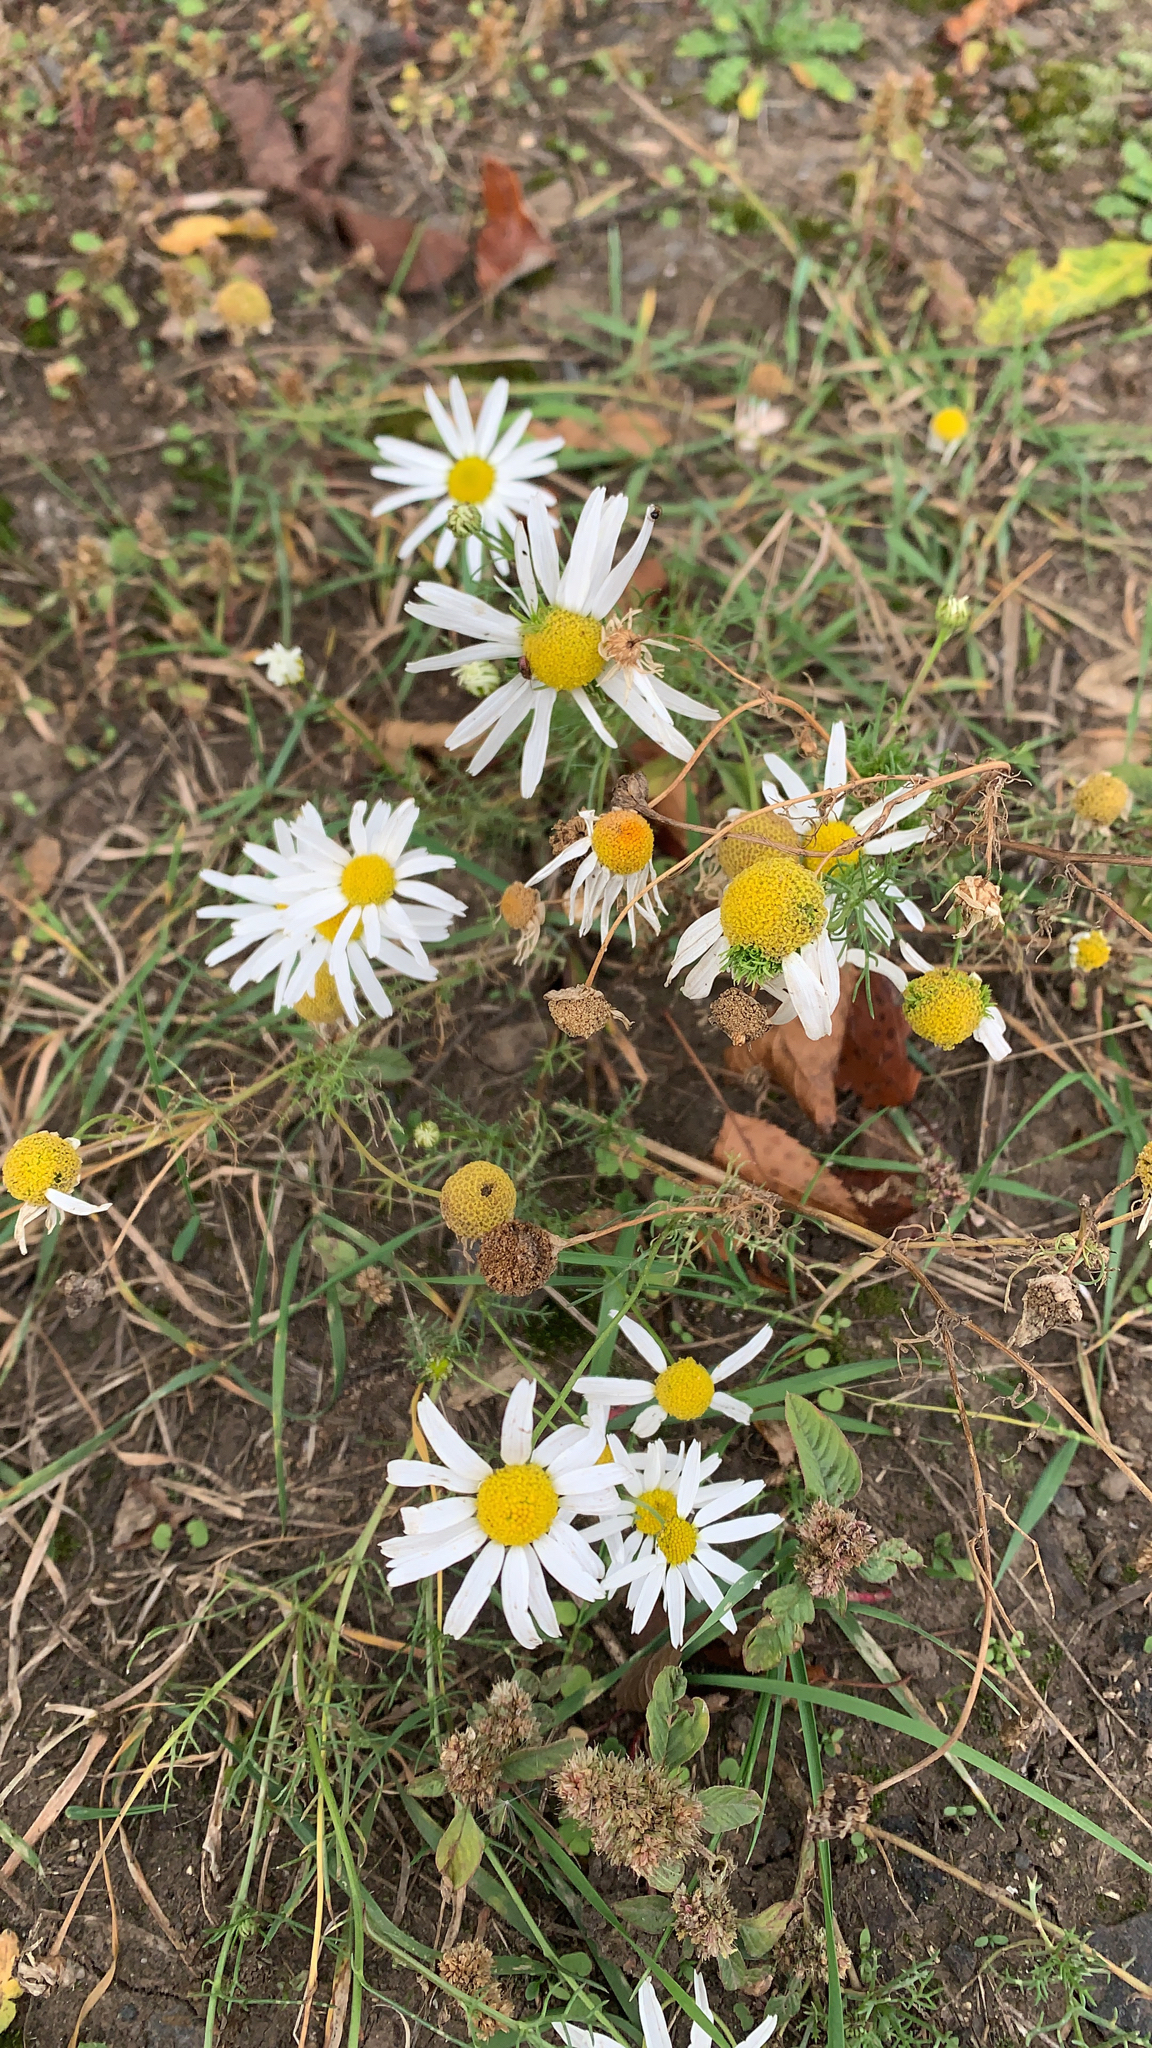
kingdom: Plantae
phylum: Tracheophyta
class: Magnoliopsida
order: Asterales
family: Asteraceae
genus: Tripleurospermum
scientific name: Tripleurospermum inodorum
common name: Scentless mayweed
